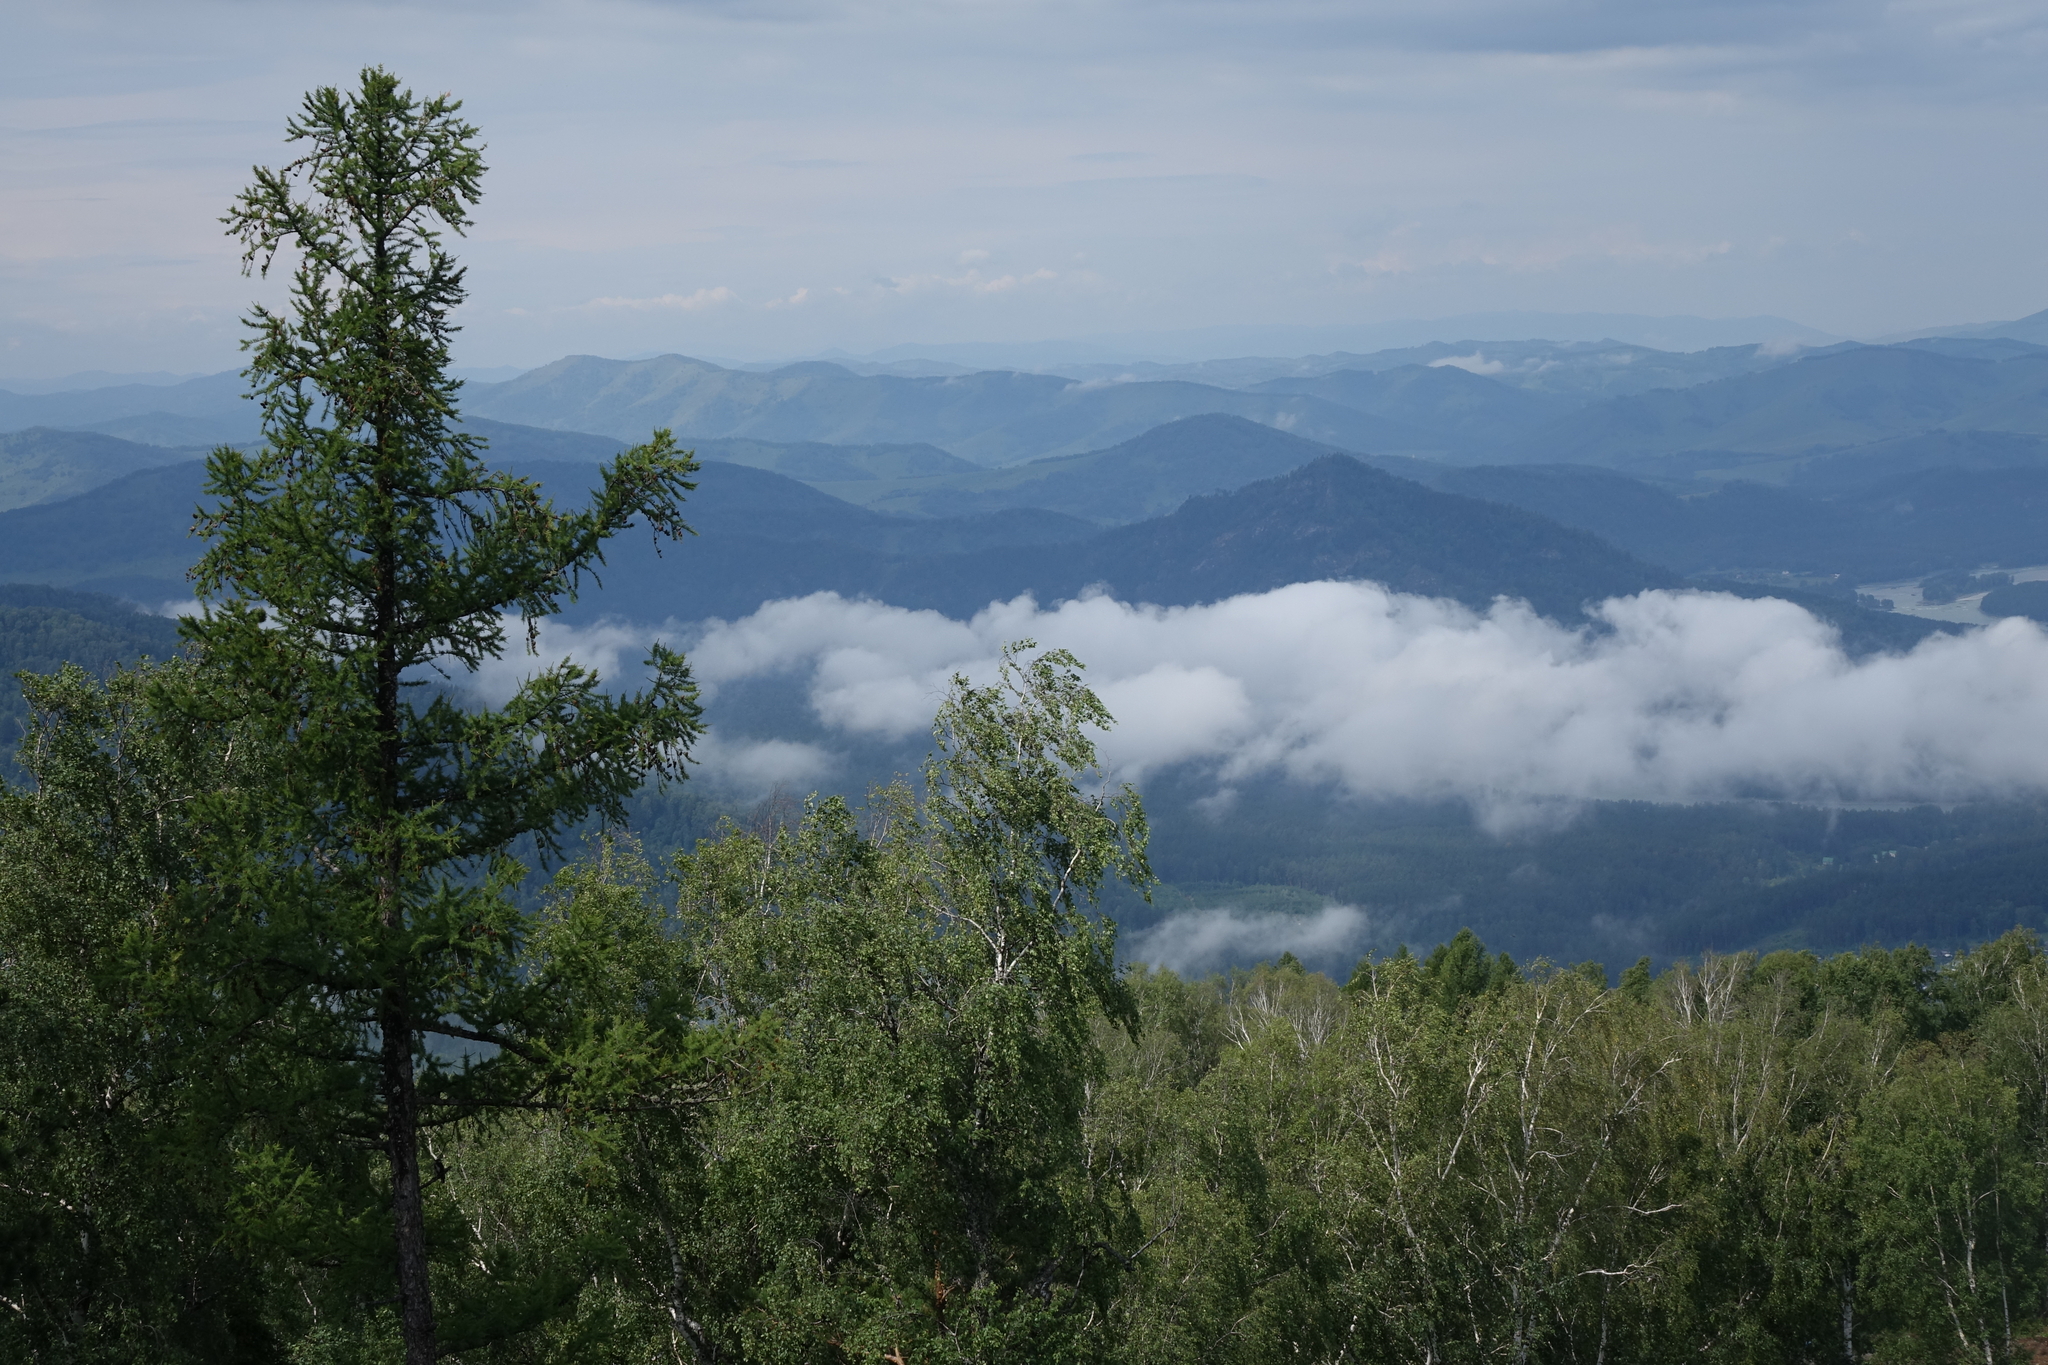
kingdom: Plantae
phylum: Tracheophyta
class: Pinopsida
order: Pinales
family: Pinaceae
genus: Larix
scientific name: Larix sibirica
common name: Siberian larch
